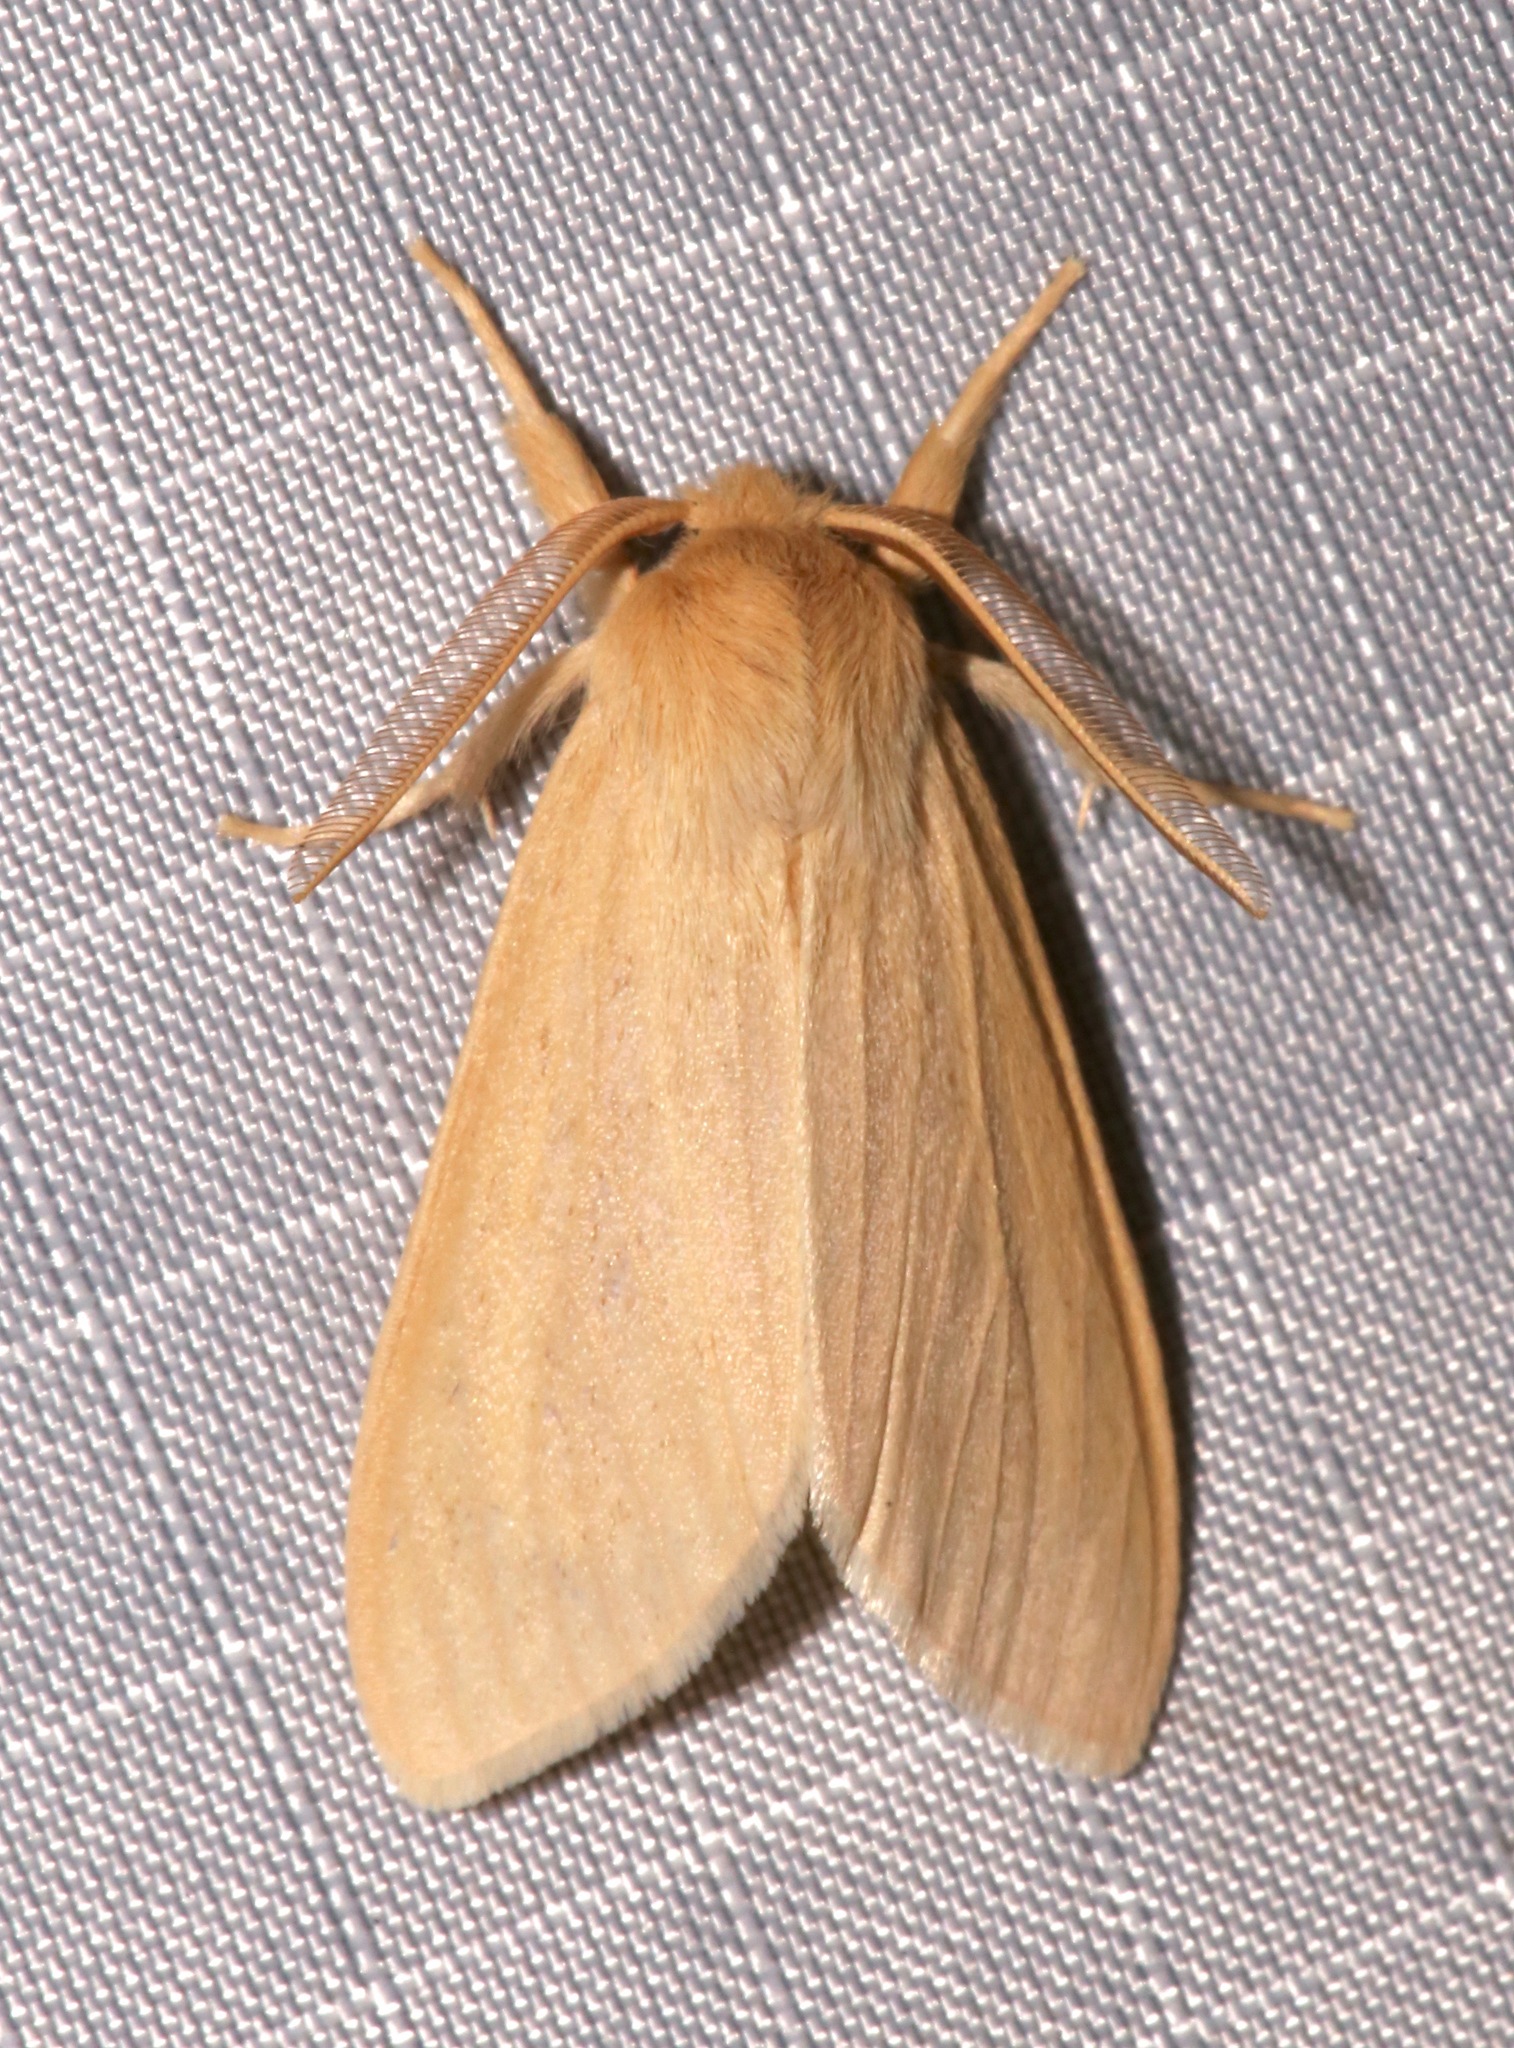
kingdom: Animalia
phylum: Arthropoda
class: Insecta
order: Lepidoptera
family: Erebidae
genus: Leucanopsis
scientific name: Leucanopsis perdentata
